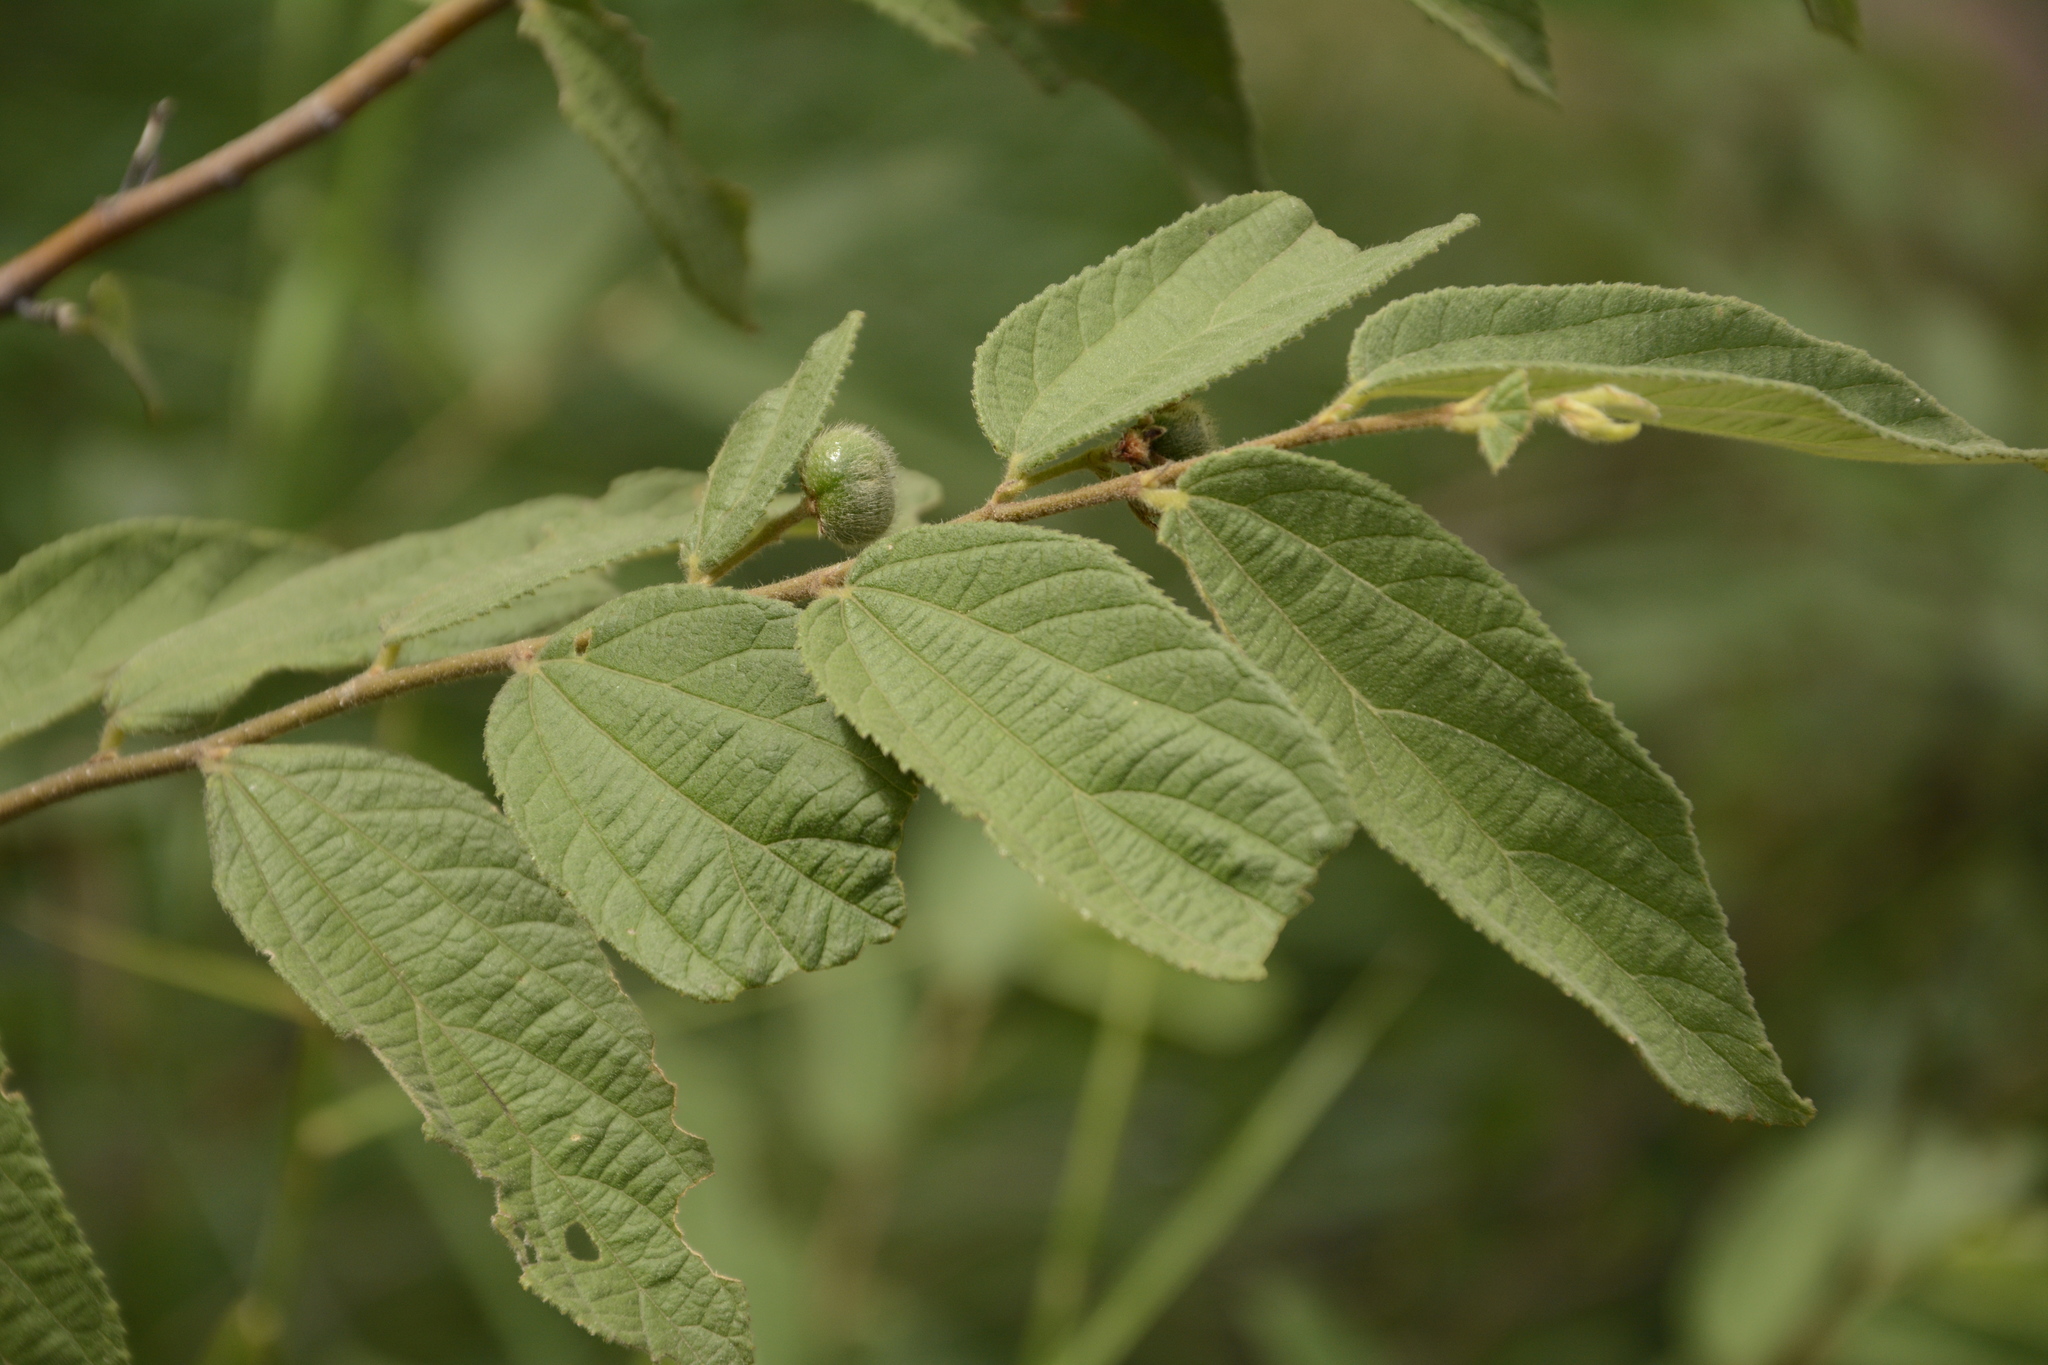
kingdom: Plantae
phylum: Tracheophyta
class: Magnoliopsida
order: Malvales
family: Malvaceae
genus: Grewia
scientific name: Grewia hirsuta
